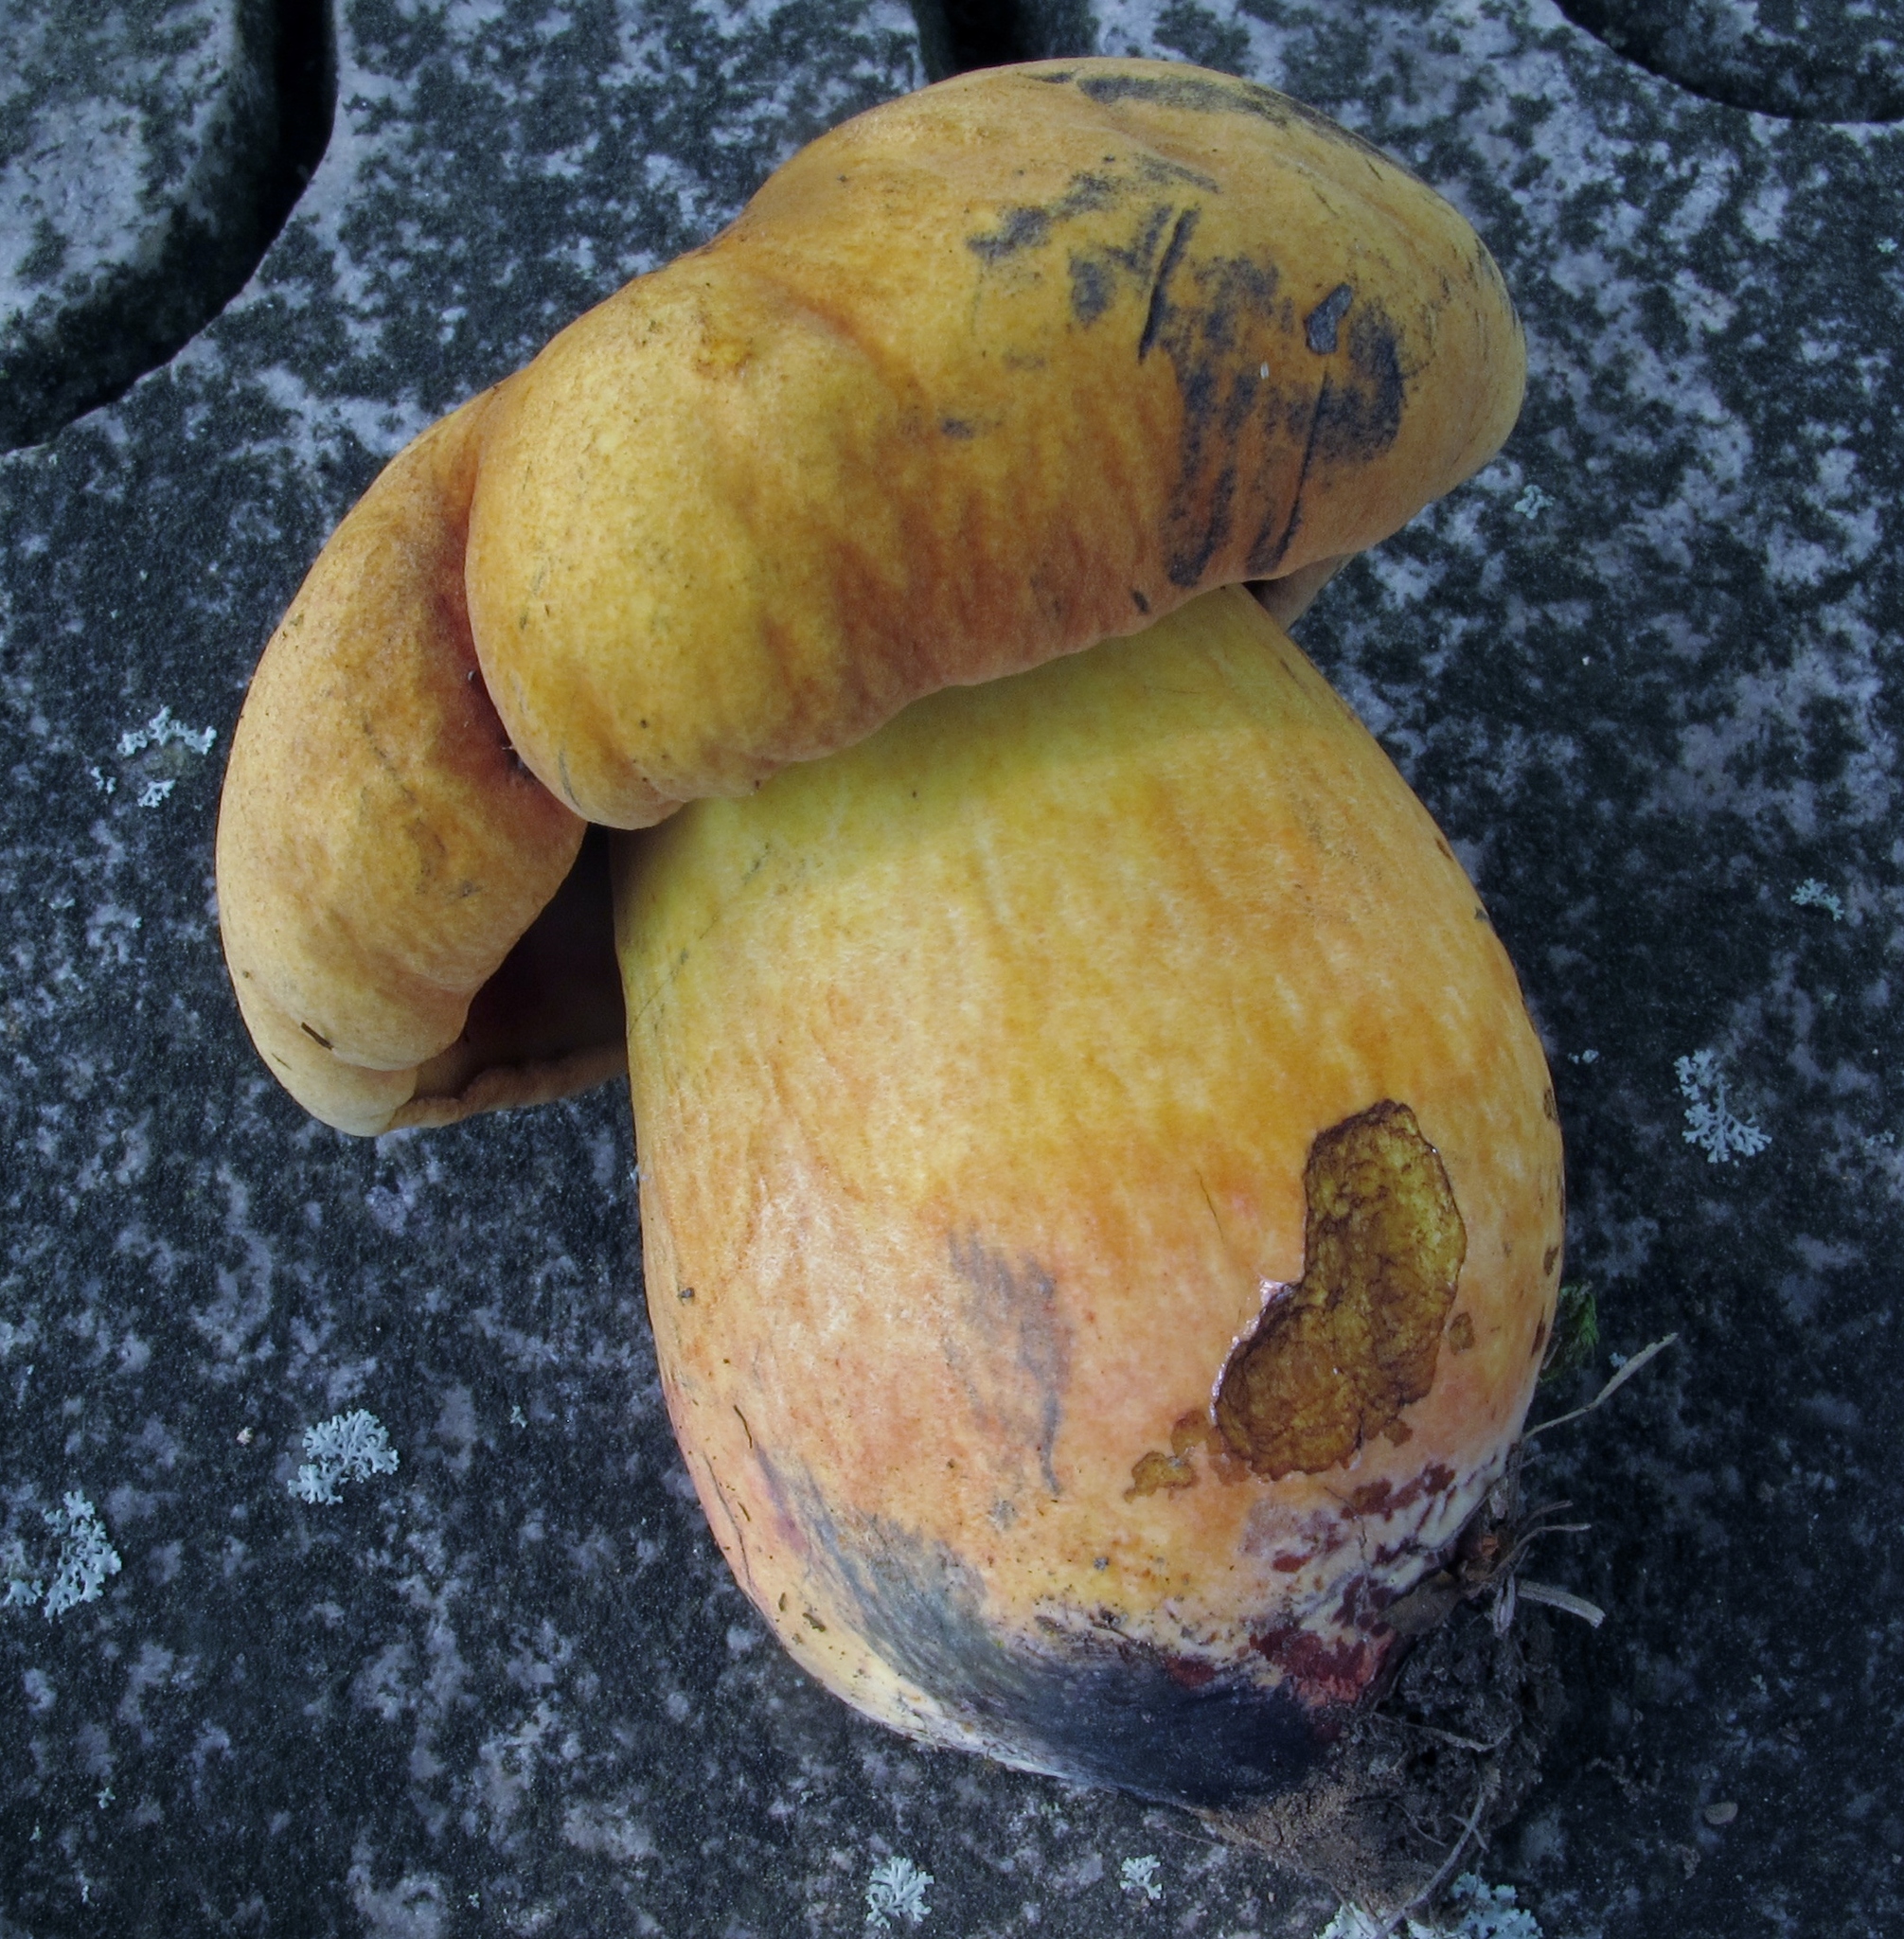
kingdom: Fungi
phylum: Basidiomycota
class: Agaricomycetes
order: Boletales
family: Boletaceae
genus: Boletus
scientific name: Boletus subvelutipes
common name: Red-mouth bolete
